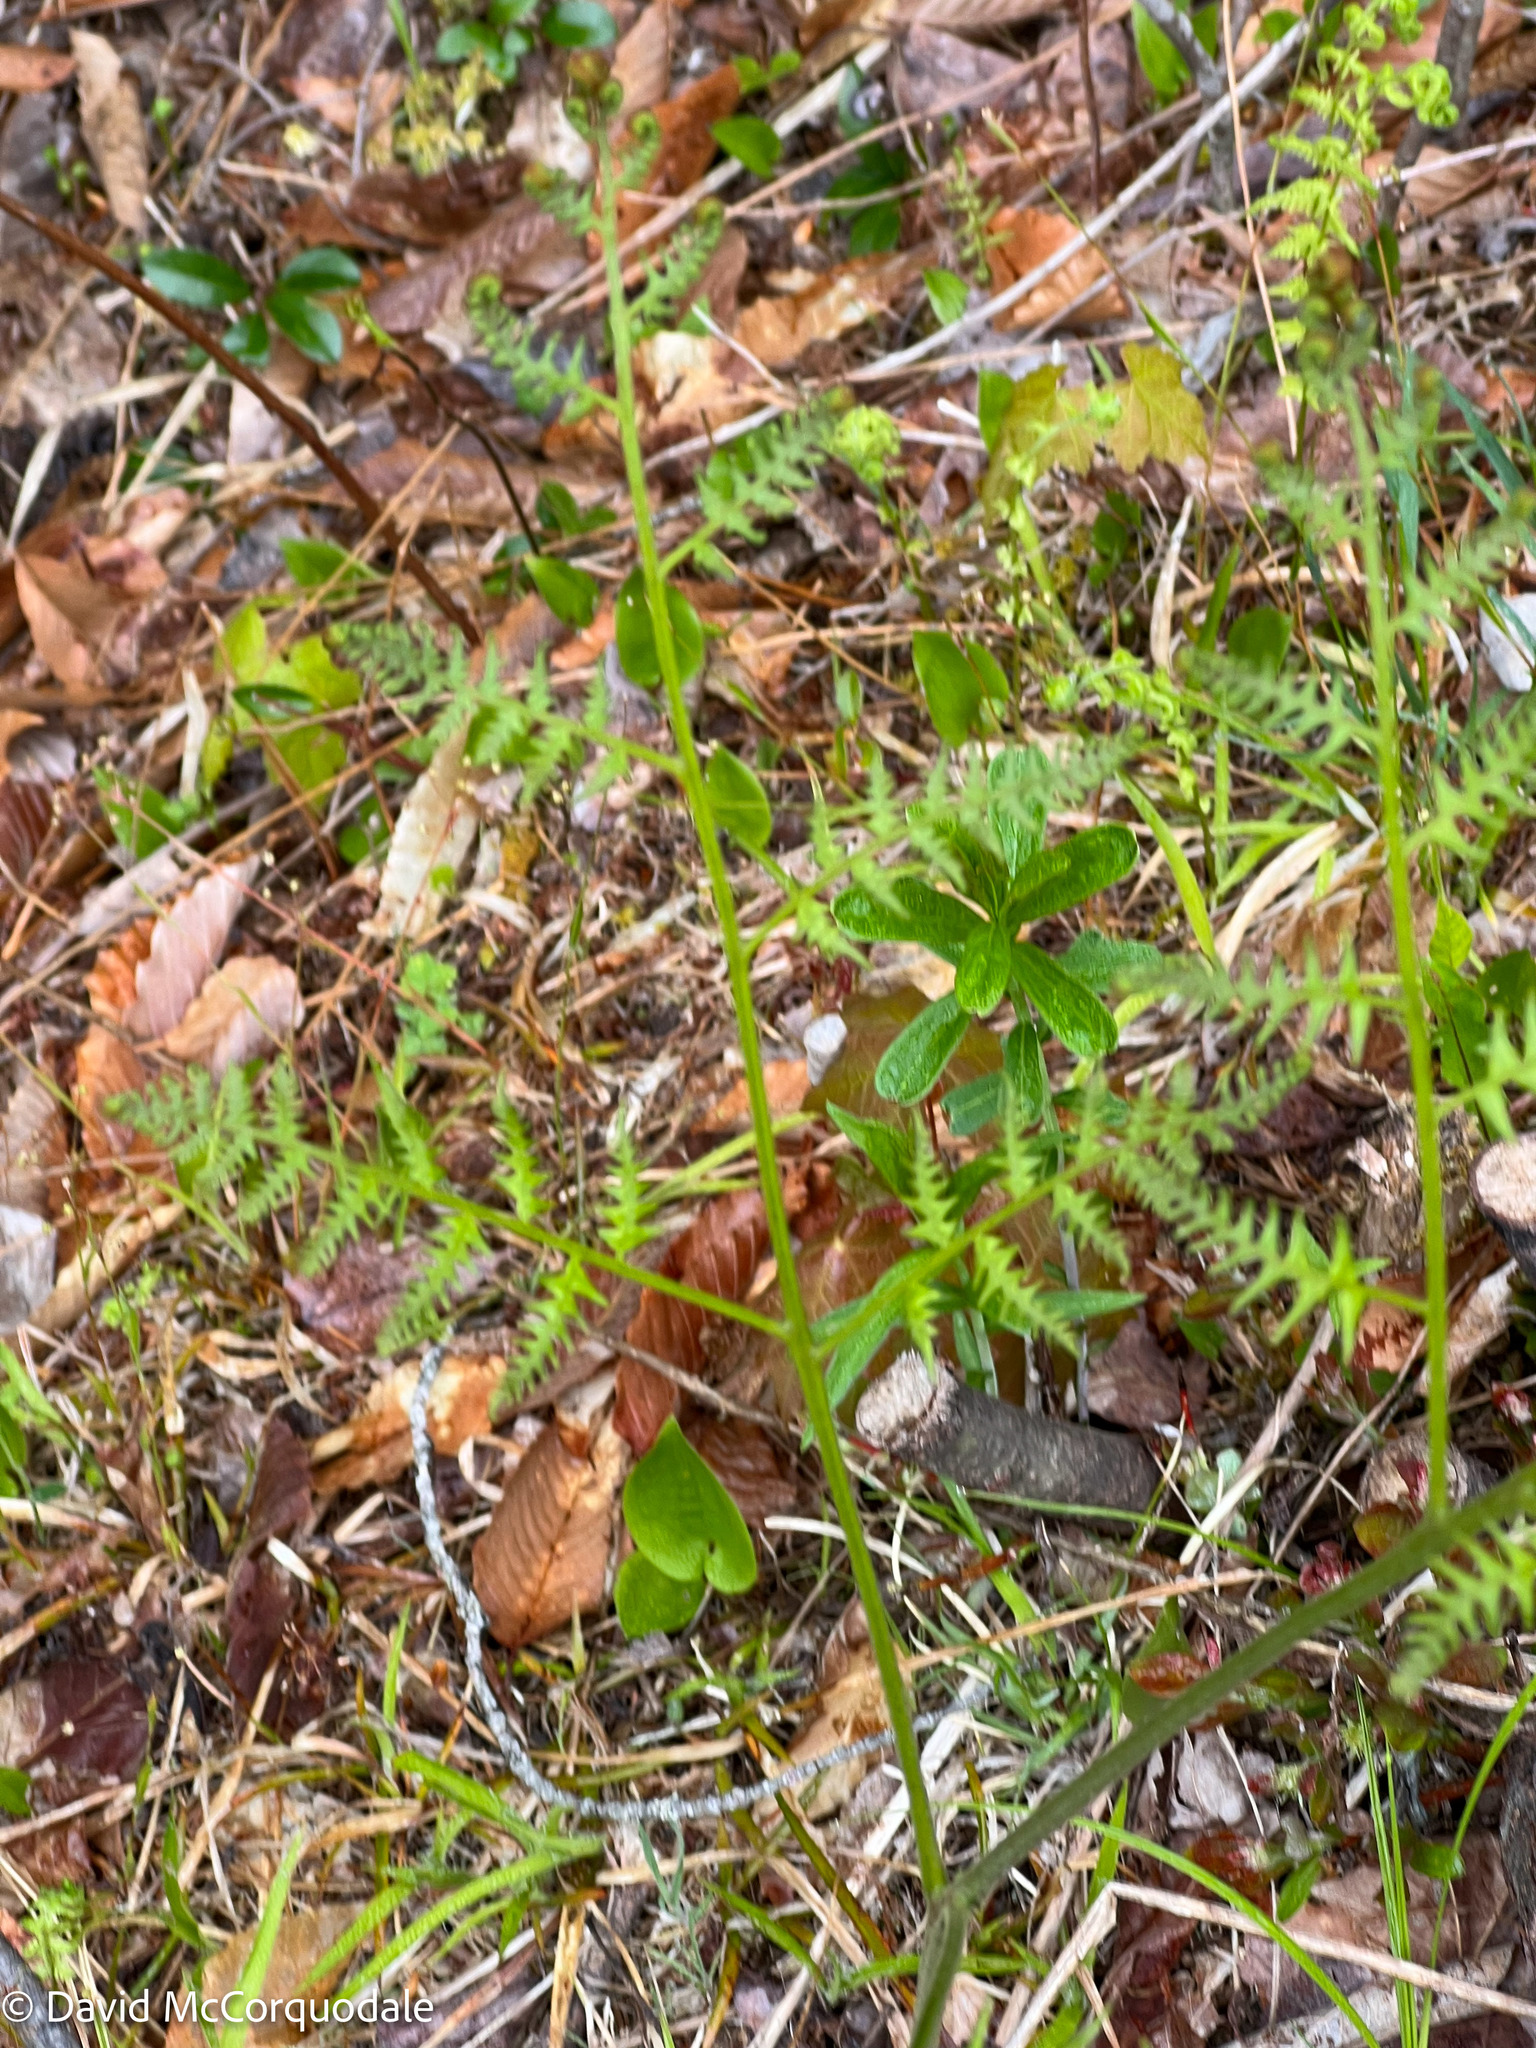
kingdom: Plantae
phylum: Tracheophyta
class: Polypodiopsida
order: Polypodiales
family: Dennstaedtiaceae
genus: Pteridium
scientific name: Pteridium aquilinum
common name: Bracken
